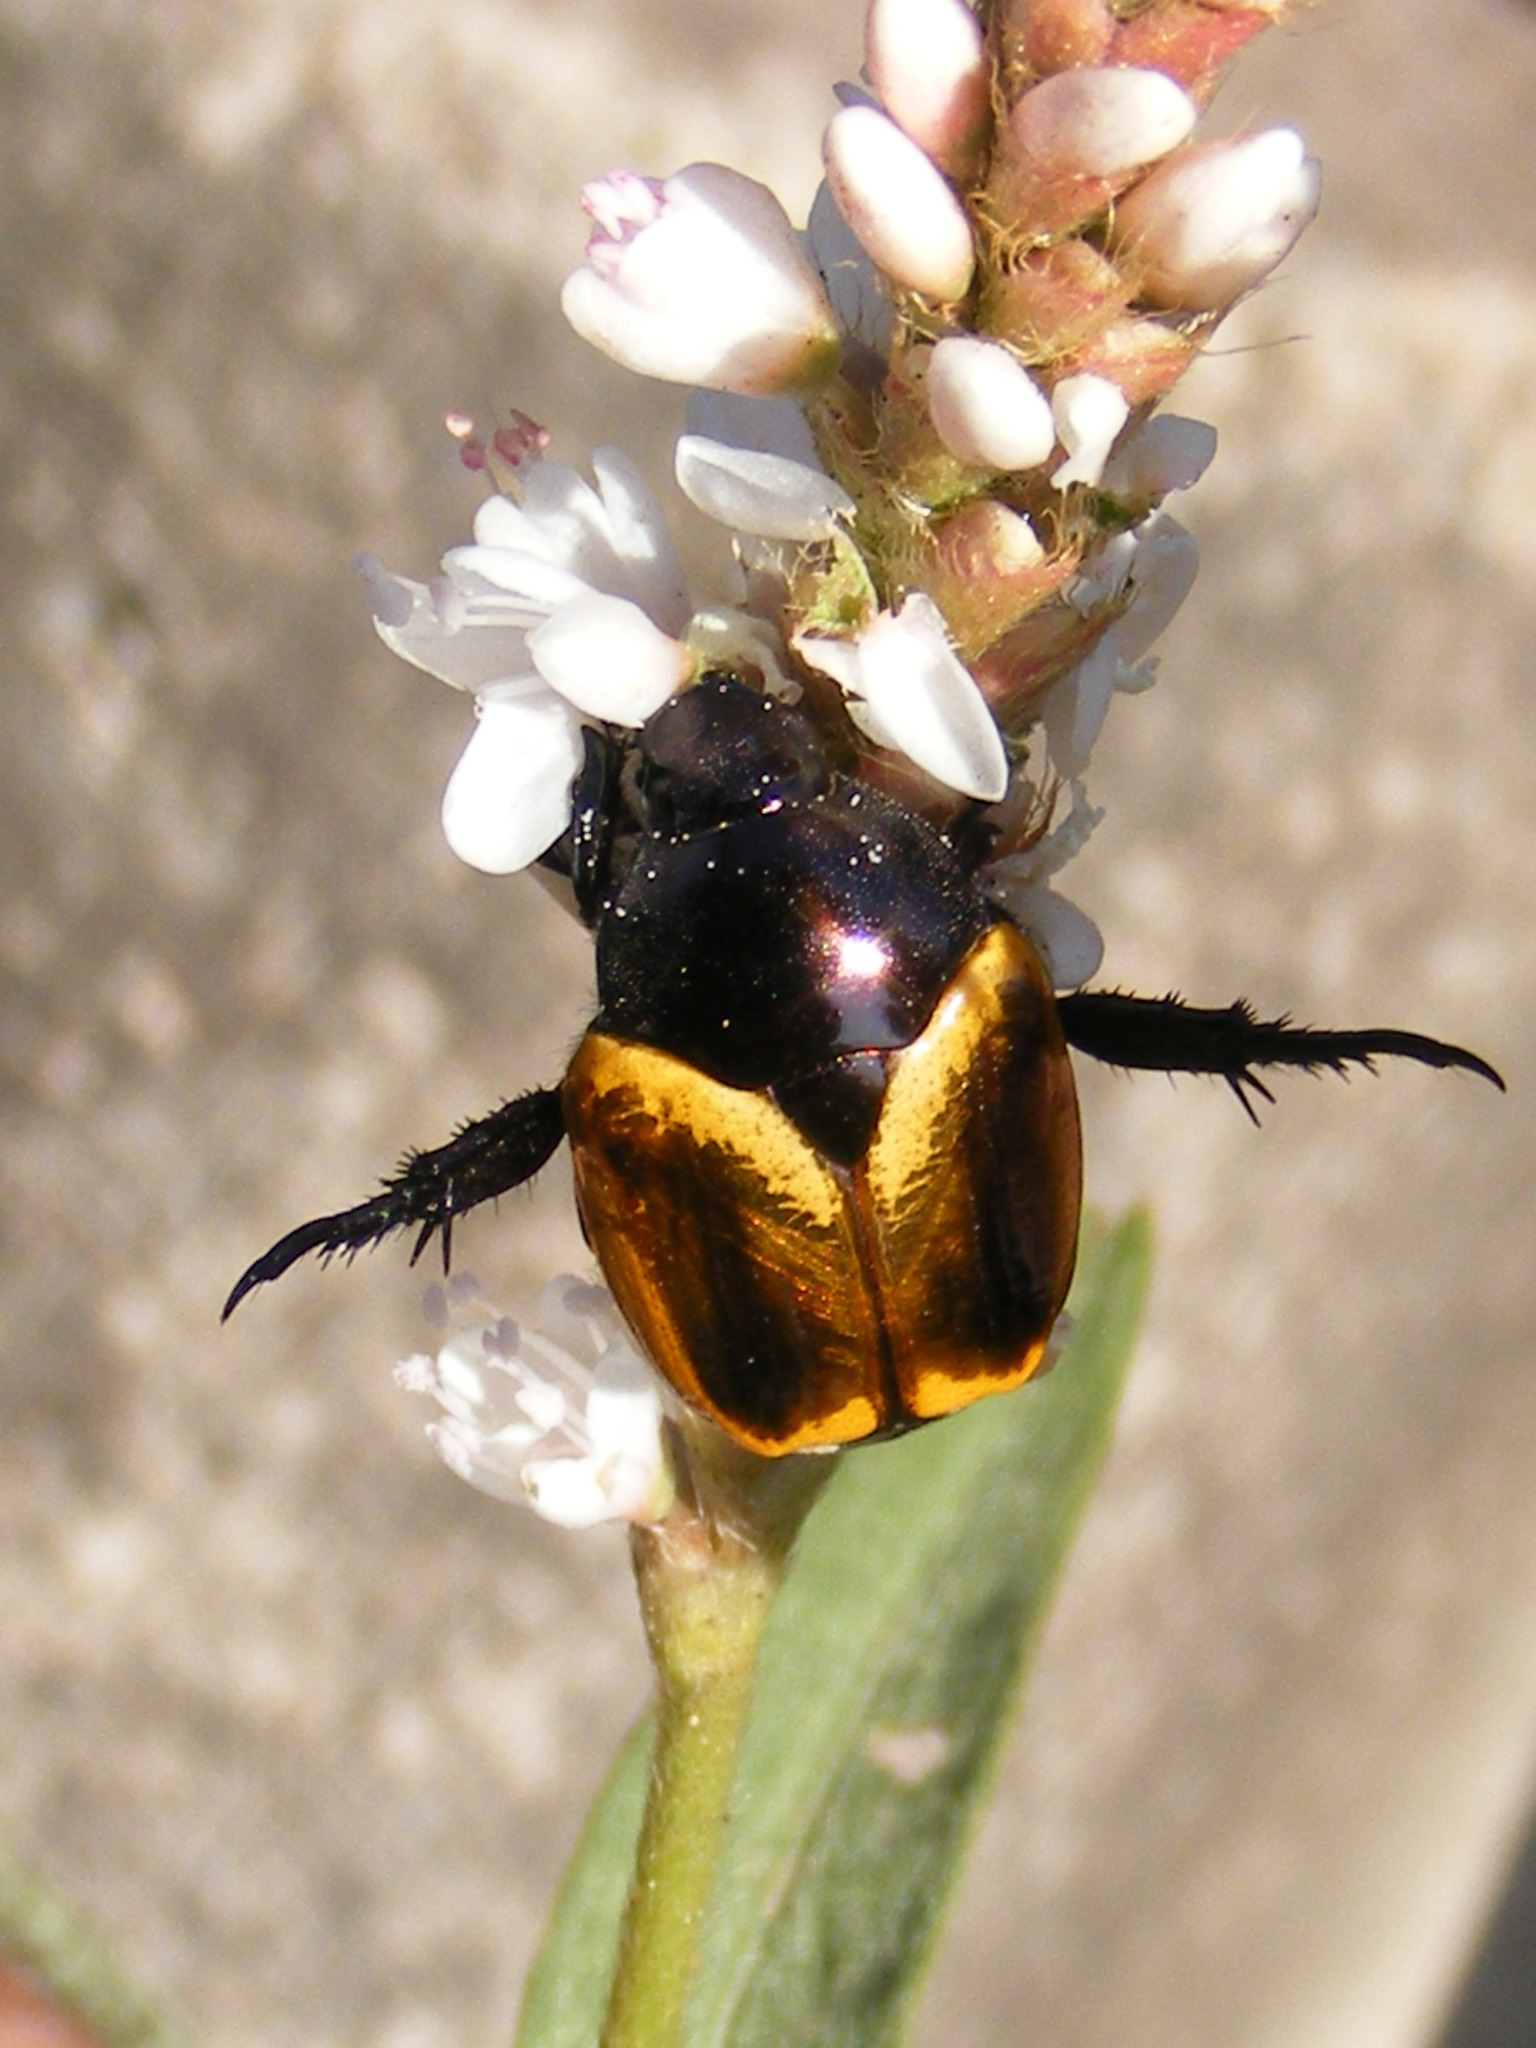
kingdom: Animalia
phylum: Arthropoda
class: Insecta
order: Coleoptera
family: Scarabaeidae
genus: Popillia
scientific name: Popillia bipunctata
